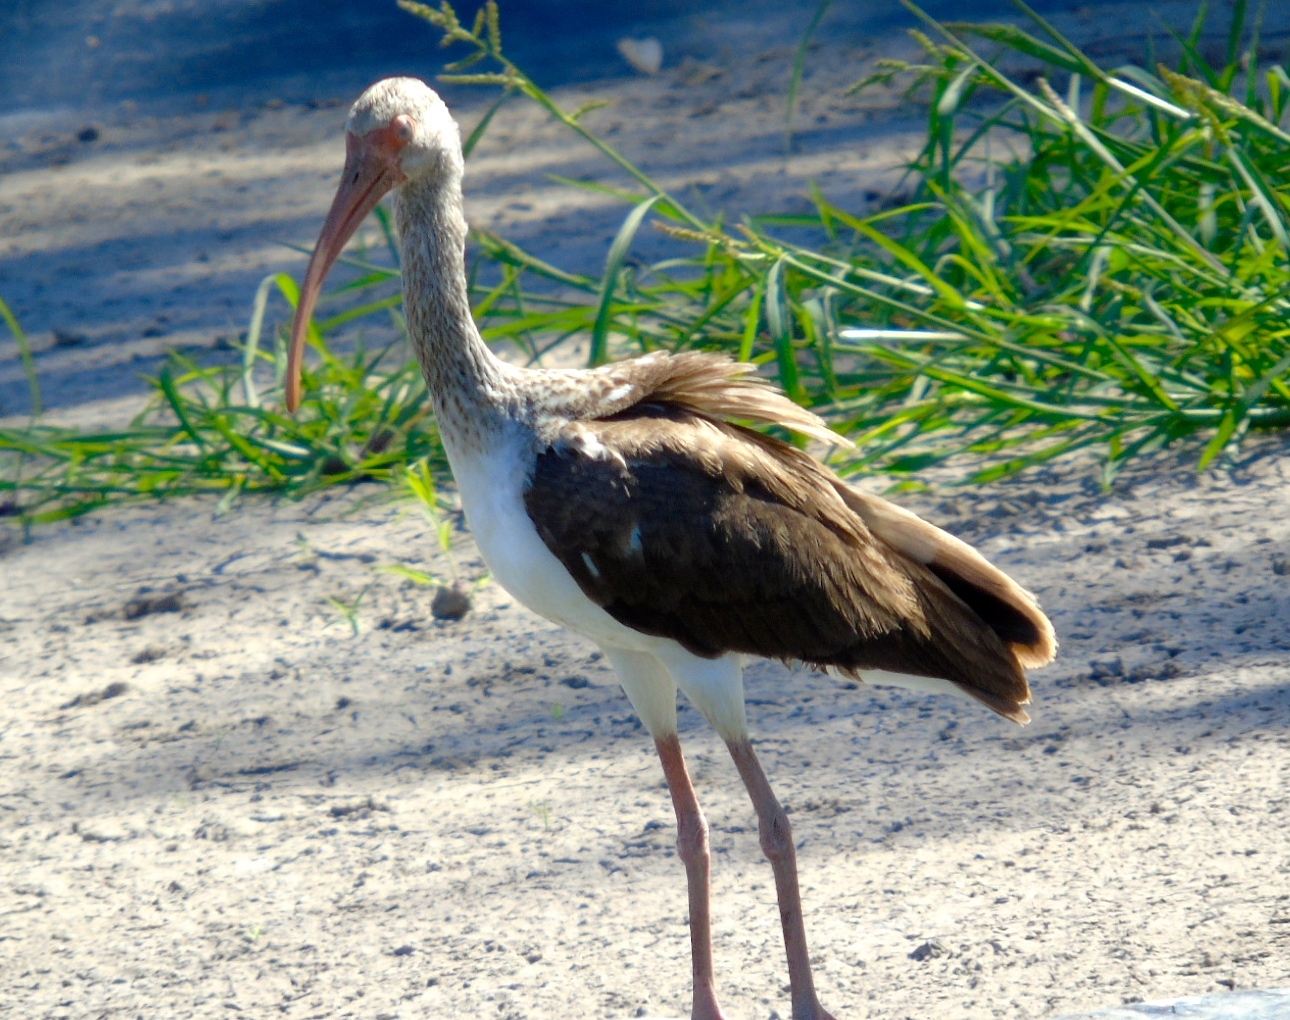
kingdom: Animalia
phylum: Chordata
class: Aves
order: Pelecaniformes
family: Threskiornithidae
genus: Eudocimus
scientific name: Eudocimus albus
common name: White ibis
